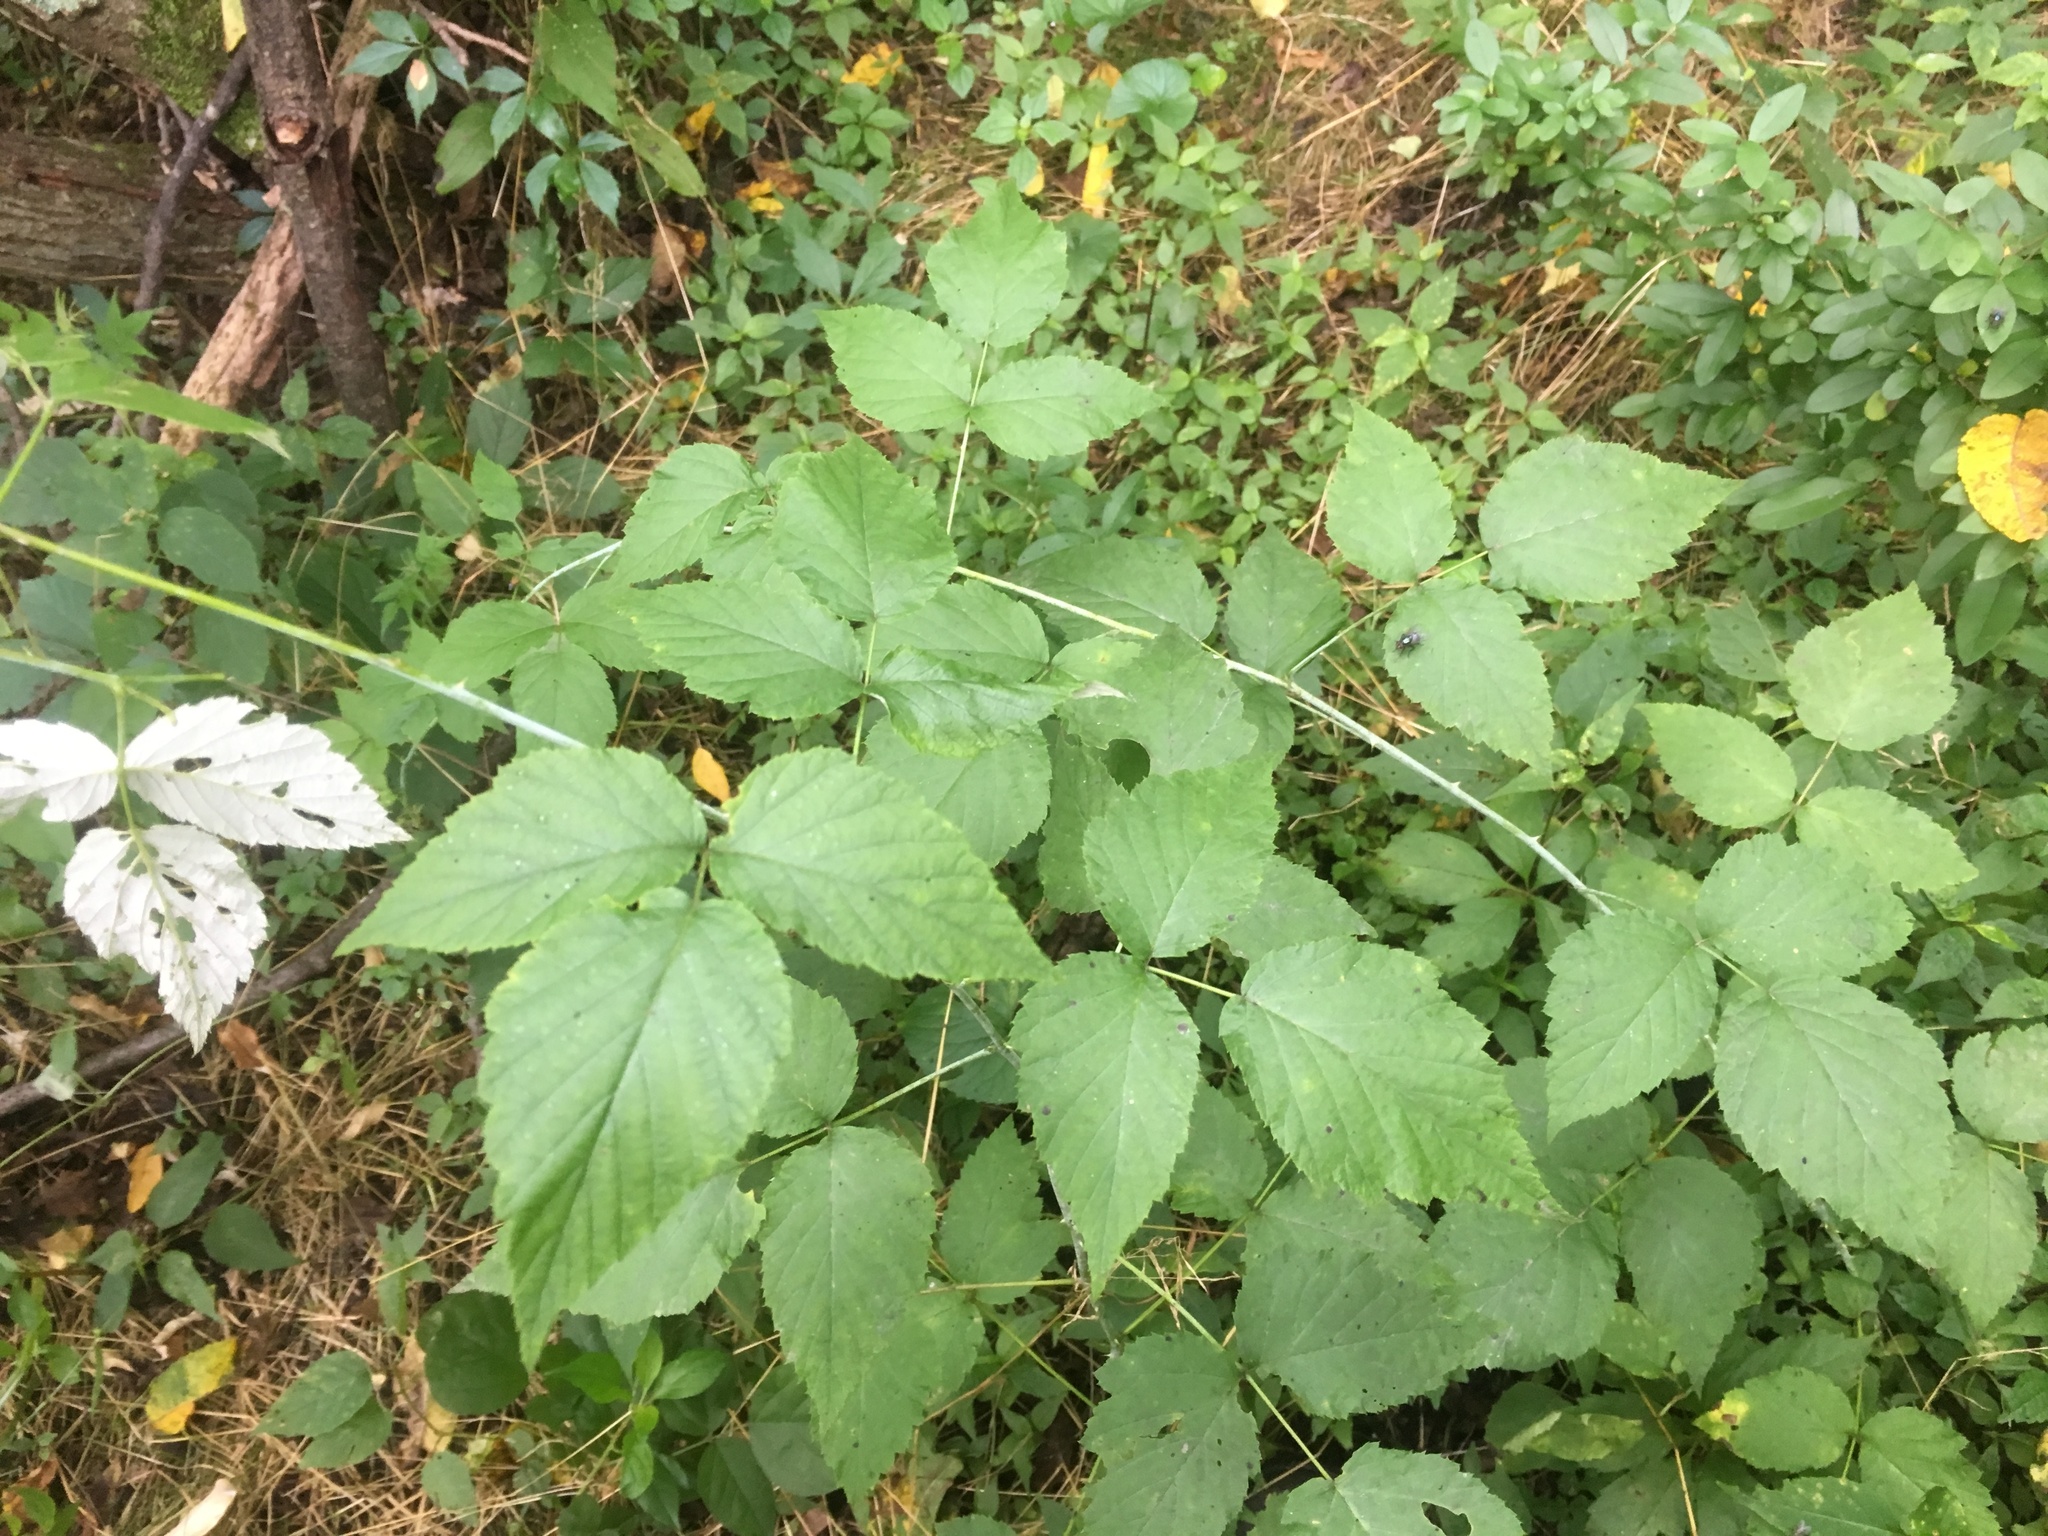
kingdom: Plantae
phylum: Tracheophyta
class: Magnoliopsida
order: Rosales
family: Rosaceae
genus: Rubus
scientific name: Rubus occidentalis
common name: Black raspberry
